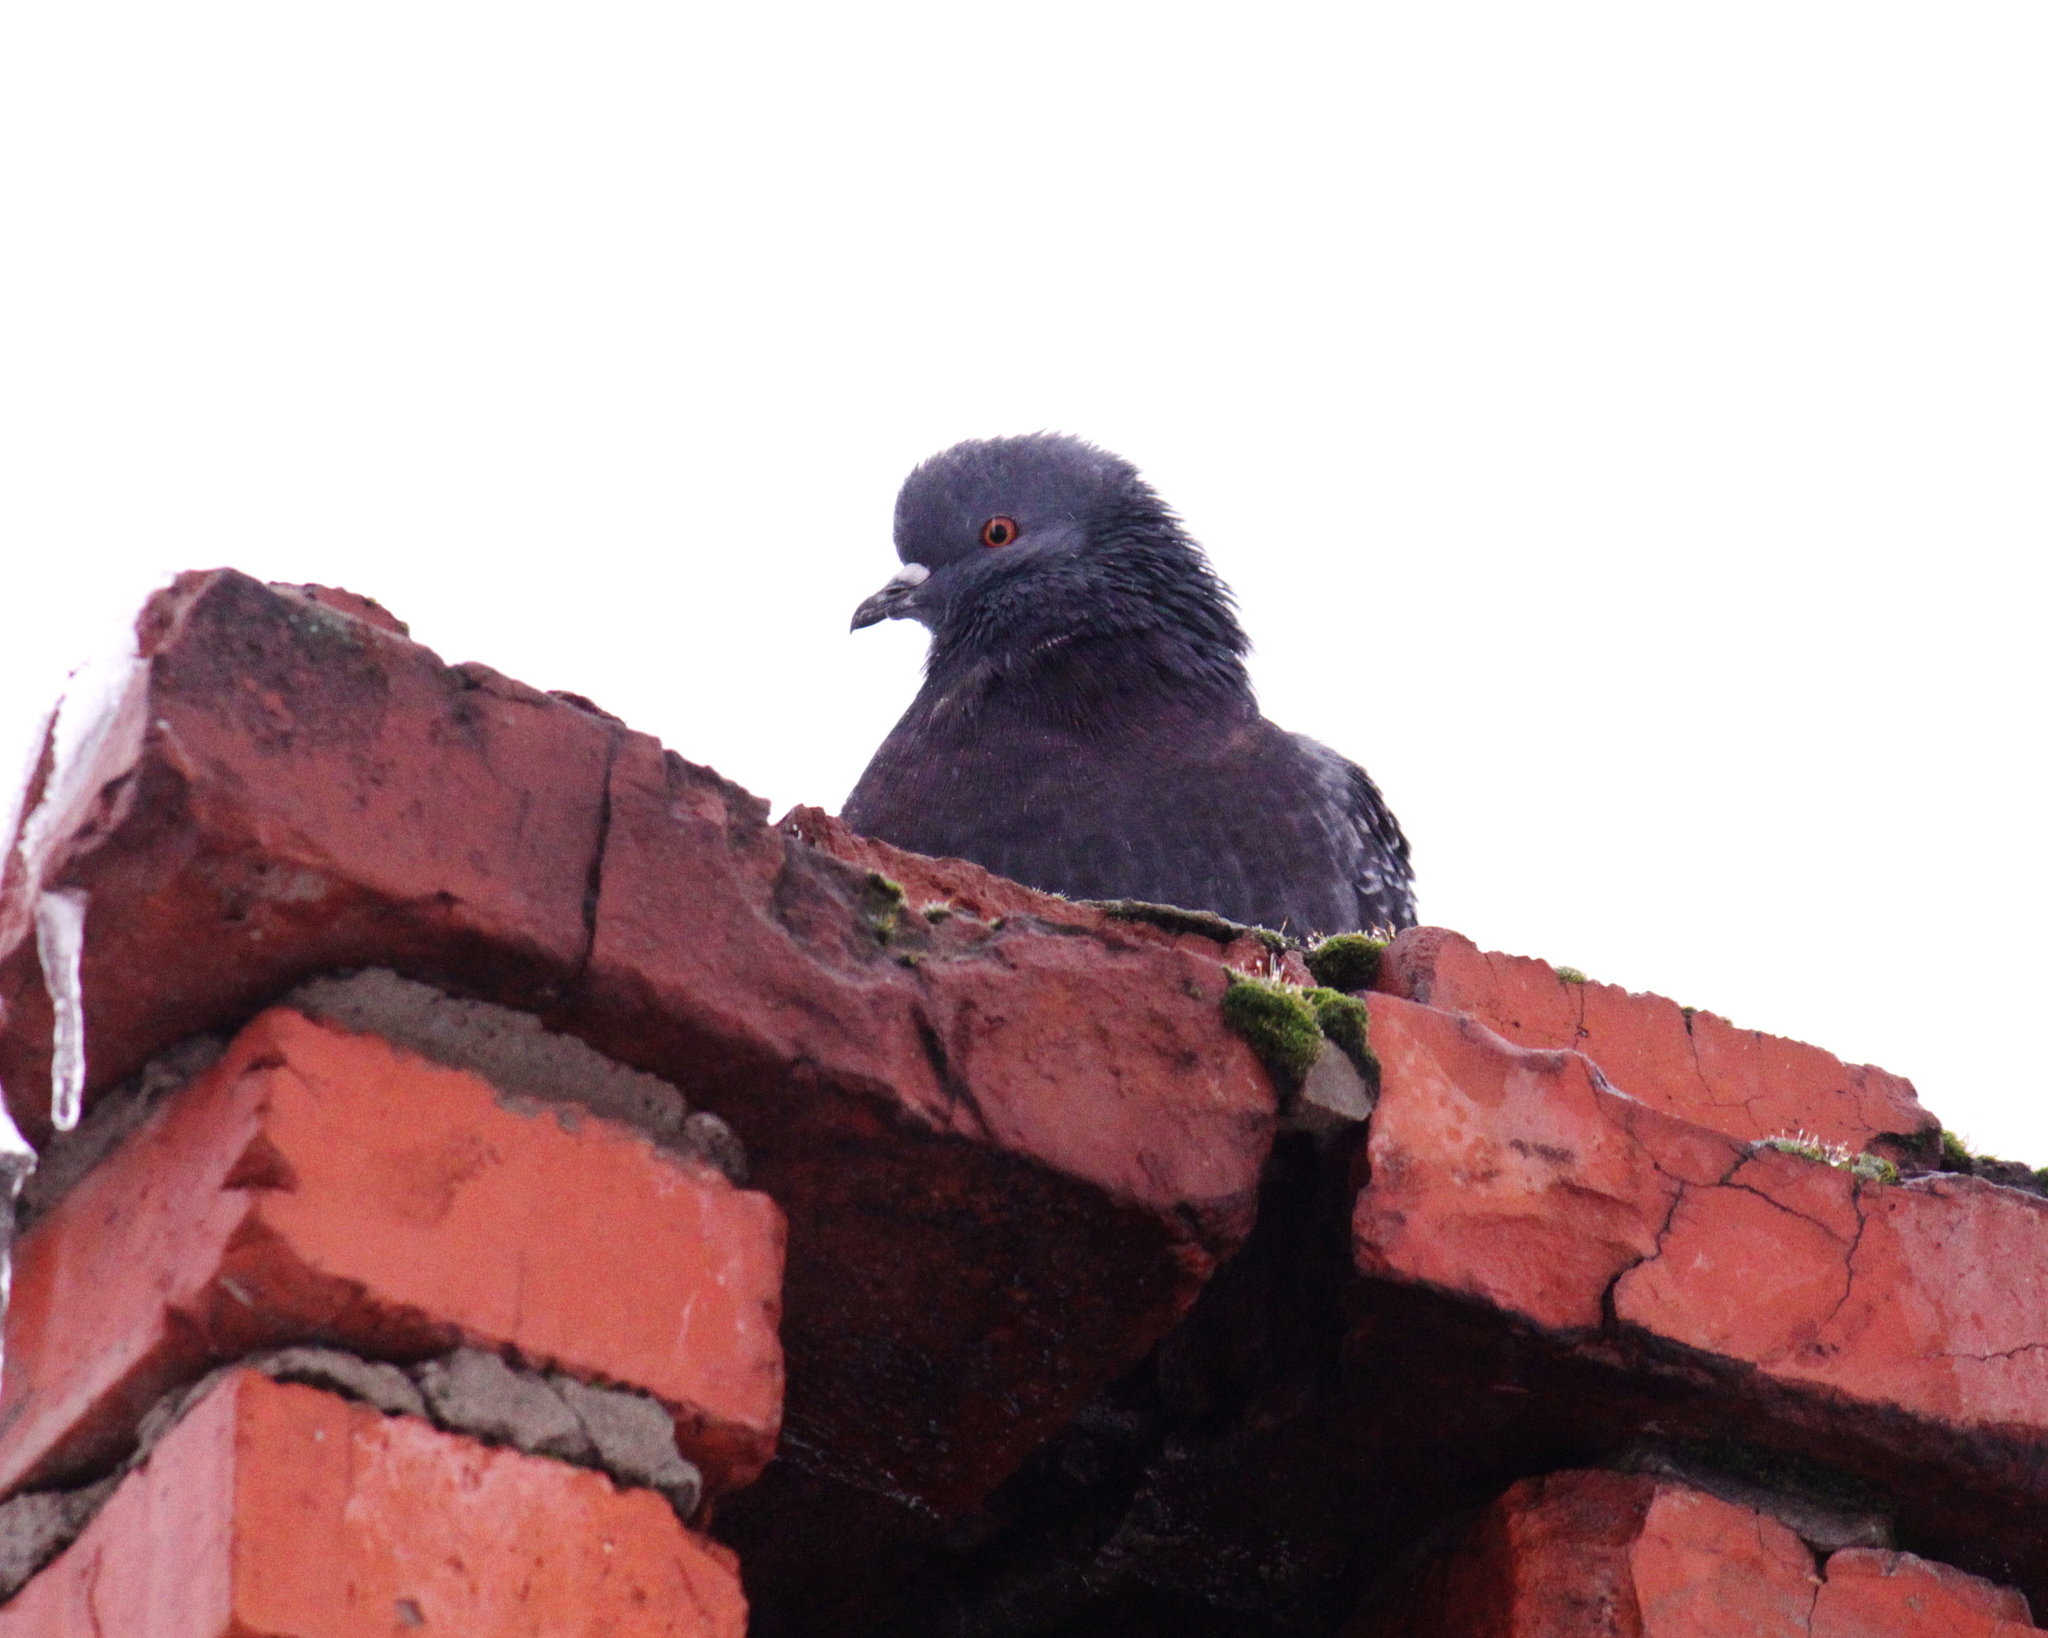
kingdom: Animalia
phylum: Chordata
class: Aves
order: Columbiformes
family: Columbidae
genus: Columba
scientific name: Columba livia
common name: Rock pigeon
